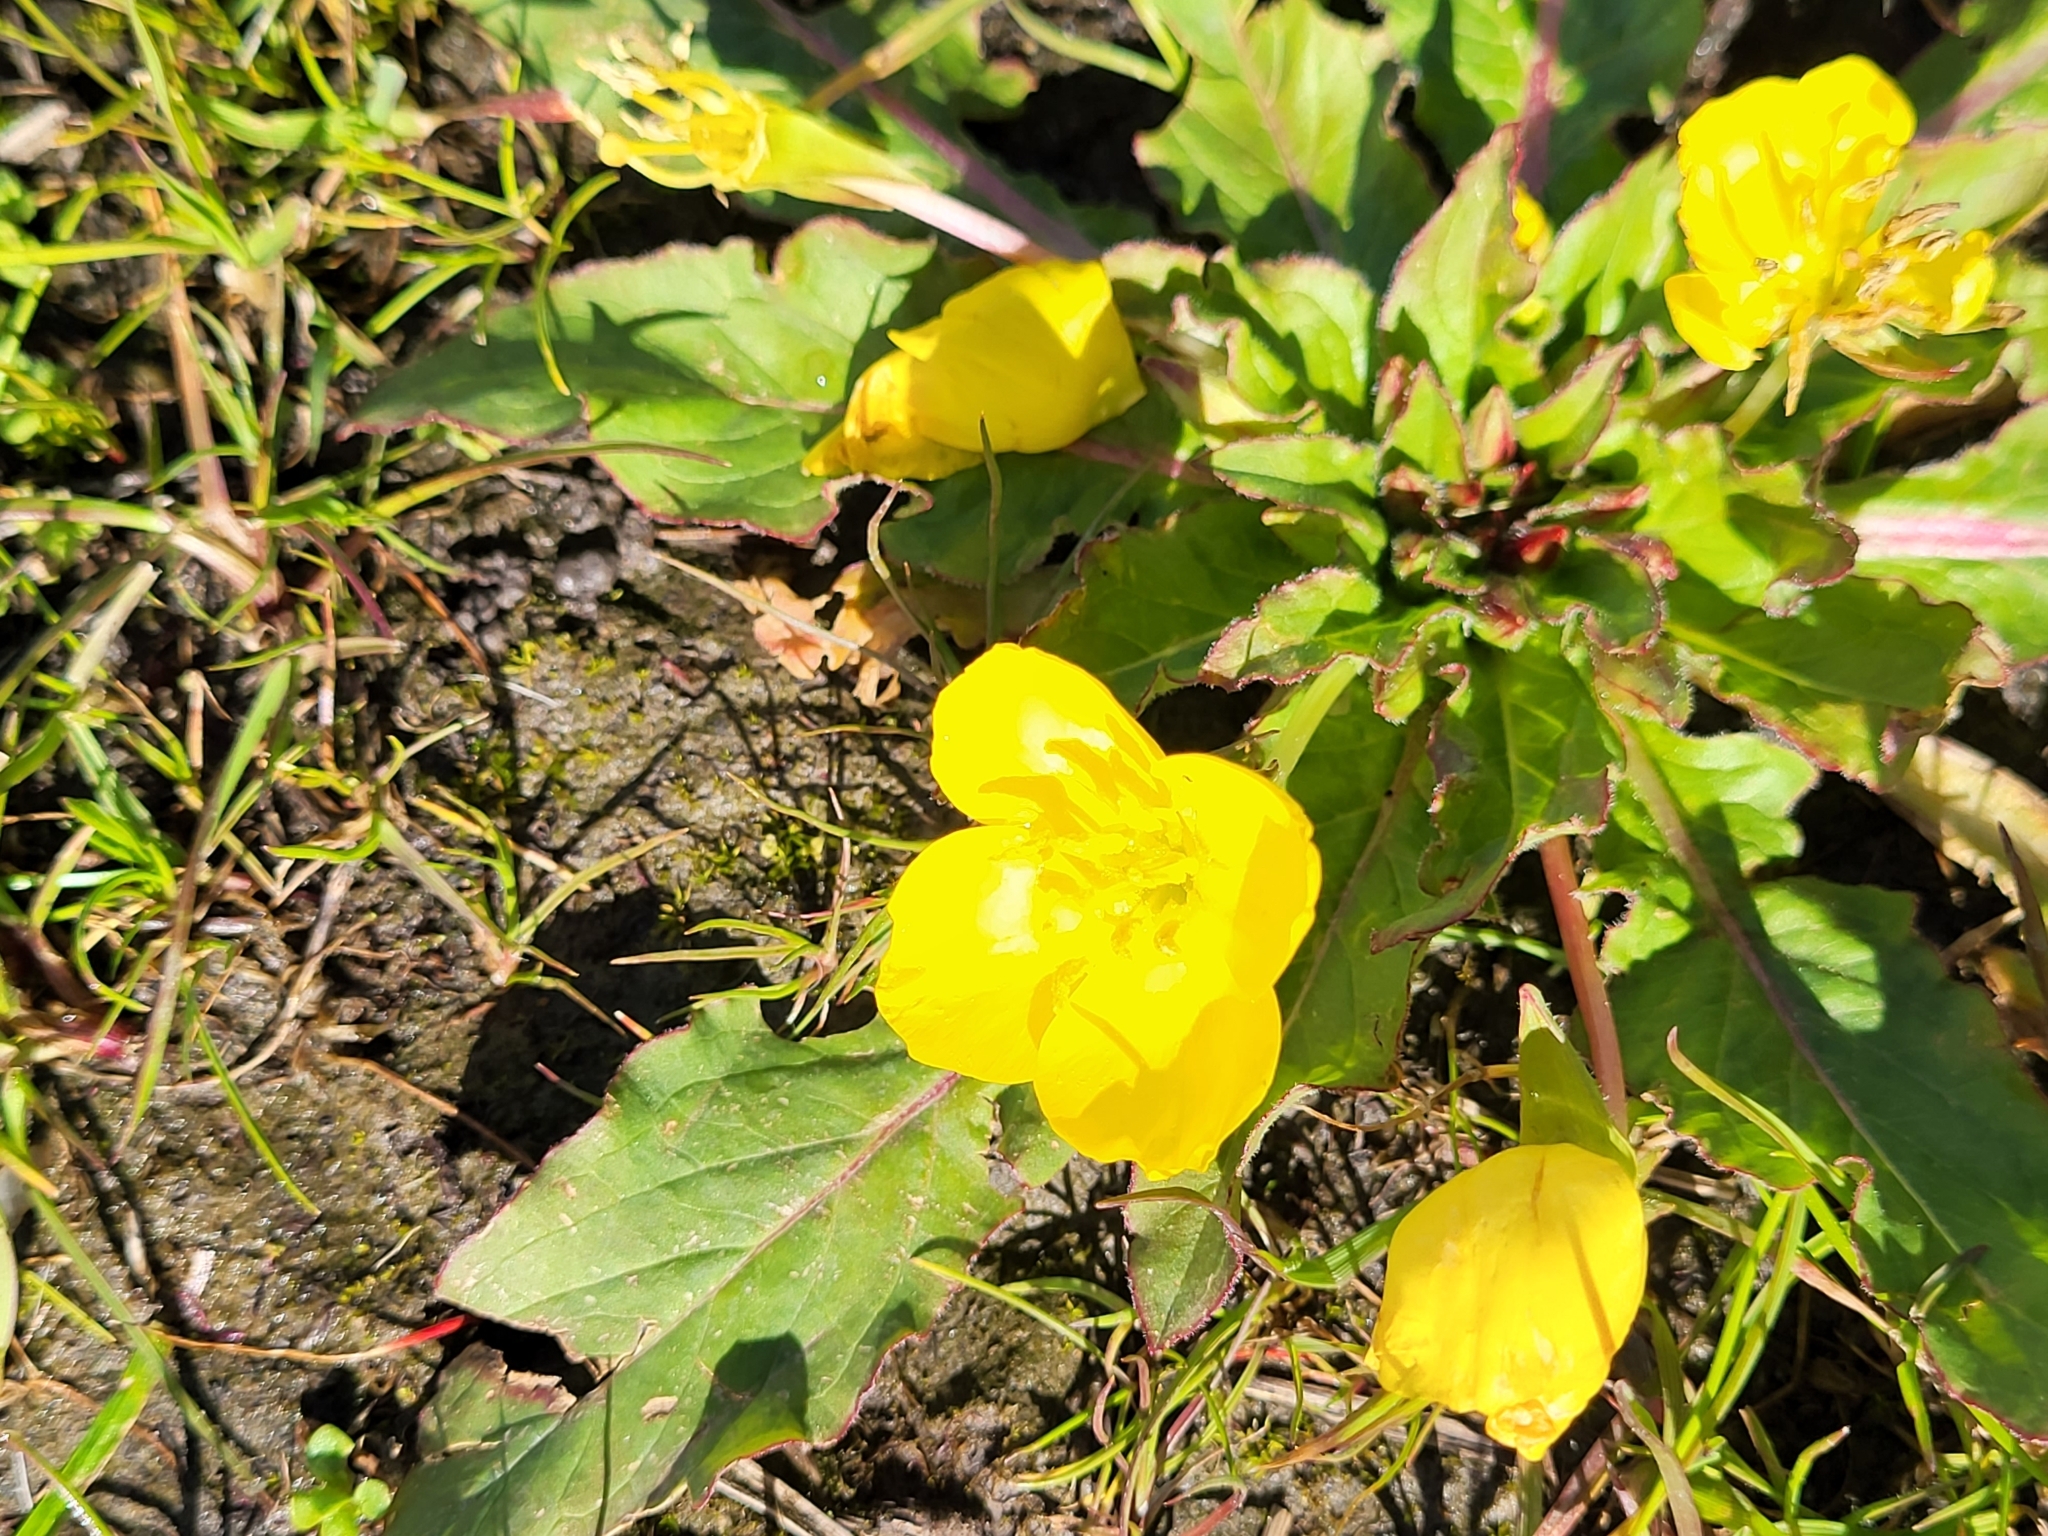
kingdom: Plantae
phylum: Tracheophyta
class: Magnoliopsida
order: Myrtales
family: Onagraceae
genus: Taraxia
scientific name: Taraxia ovata
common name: Goldeneggs
